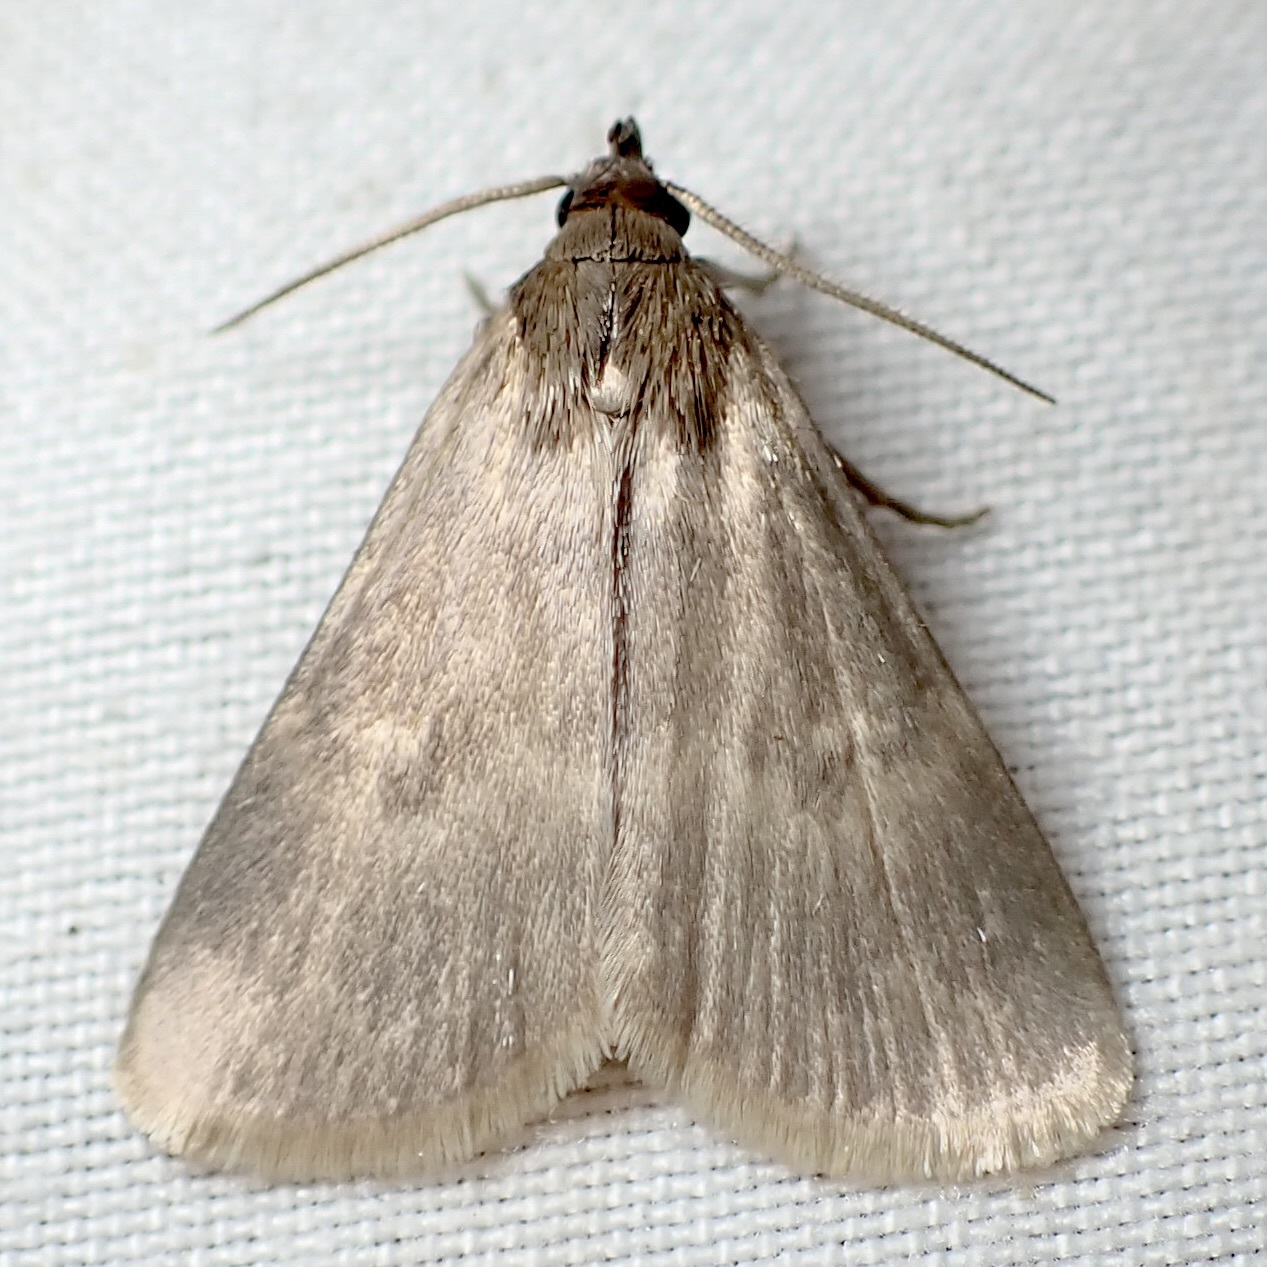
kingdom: Animalia
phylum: Arthropoda
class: Insecta
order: Lepidoptera
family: Erebidae
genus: Idia
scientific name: Idia parvulalis
